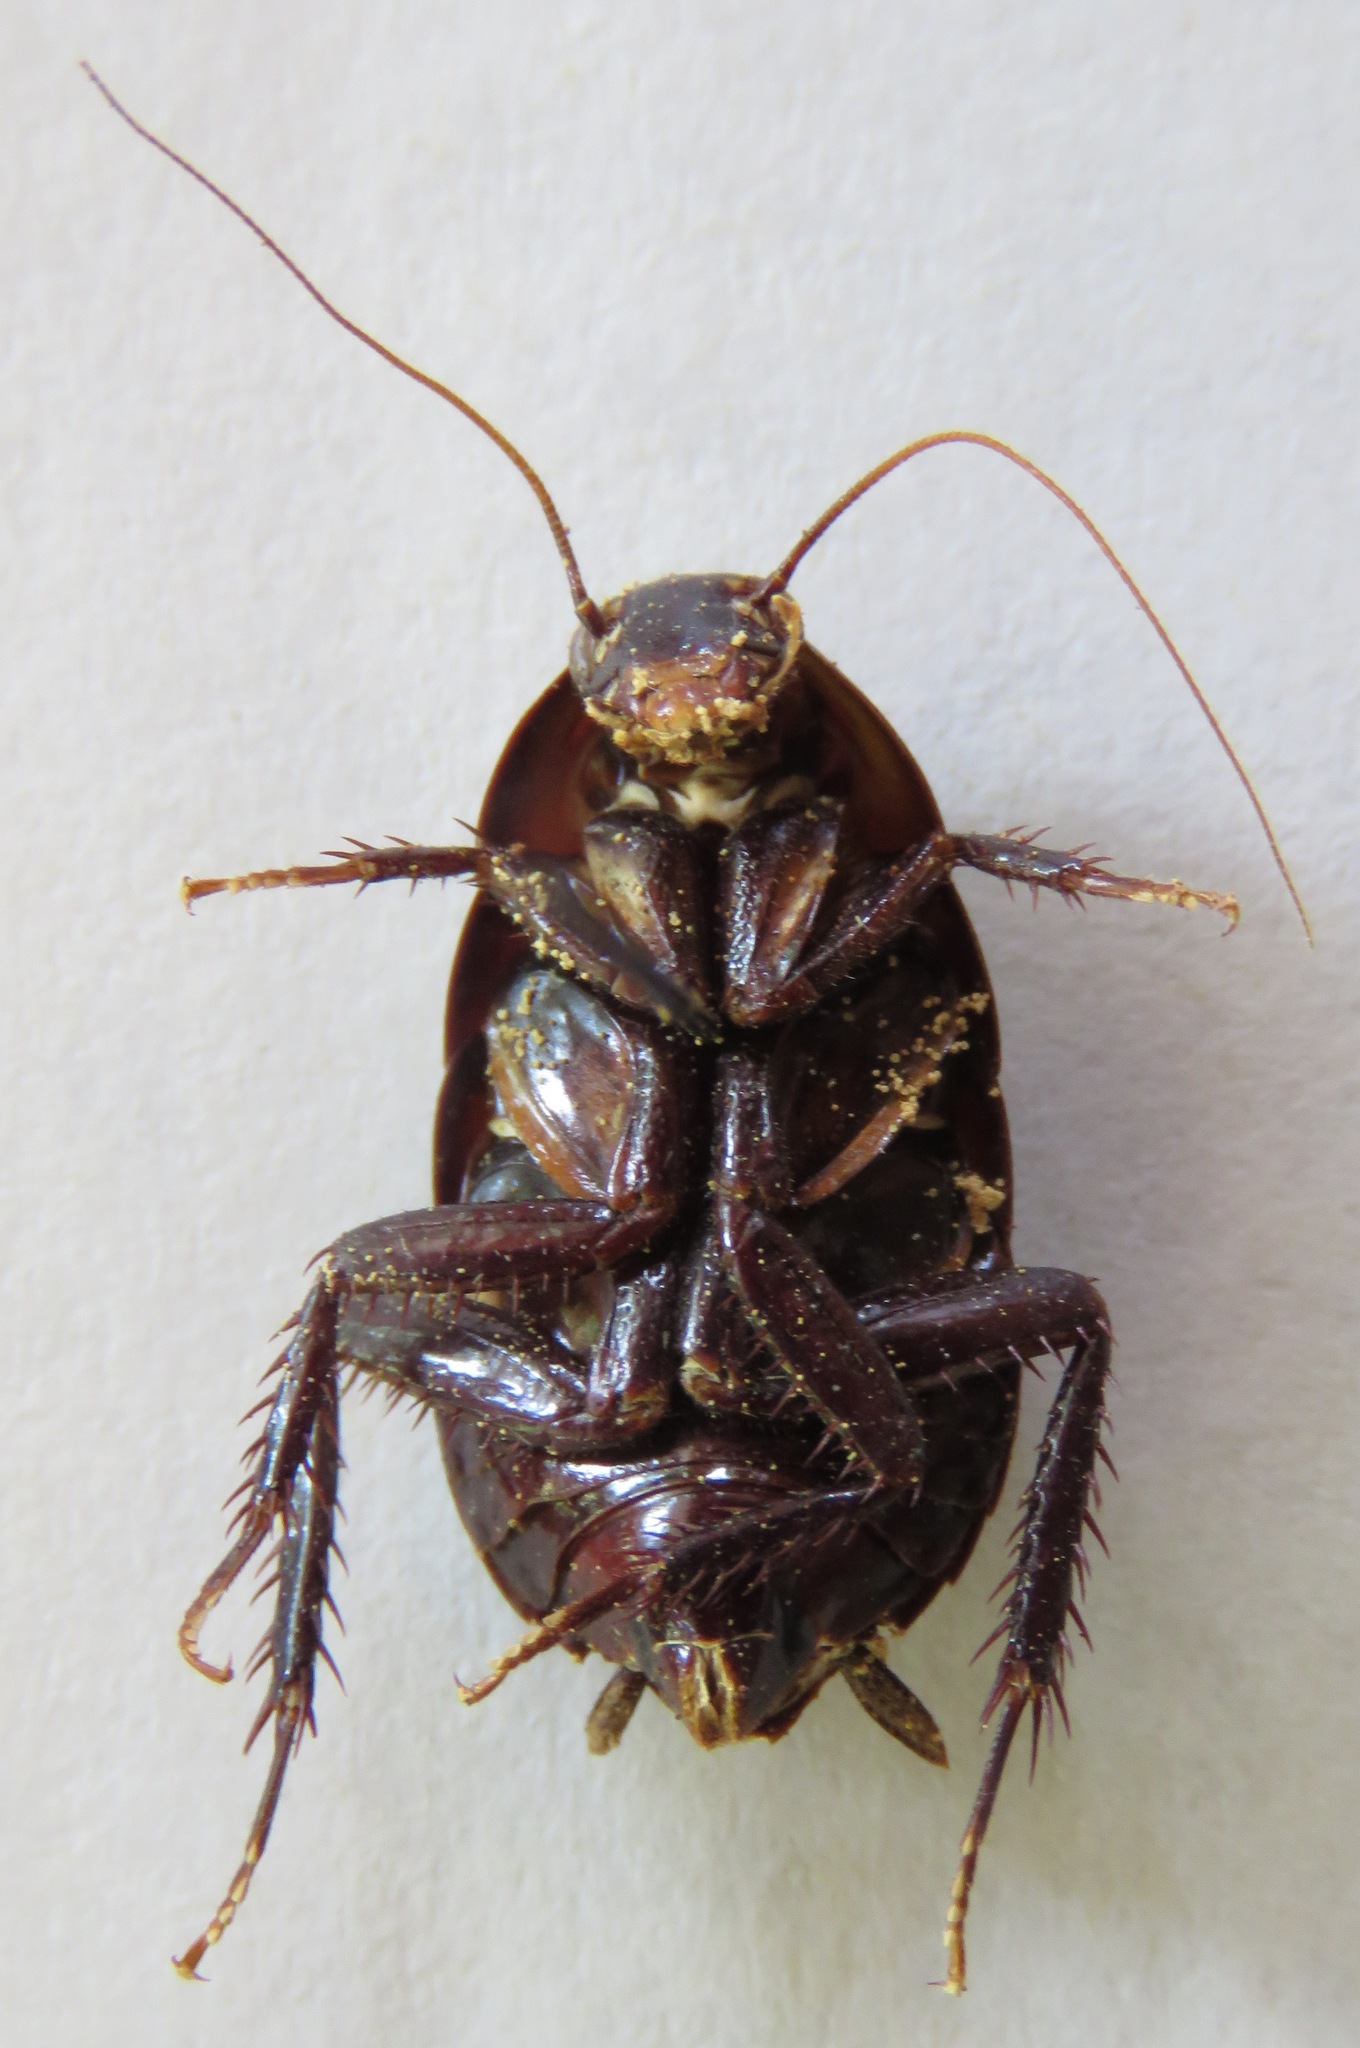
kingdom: Animalia
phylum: Arthropoda
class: Insecta
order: Blattodea
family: Lamproblattidae
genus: Lamproblatta
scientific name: Lamproblatta albipalpus
